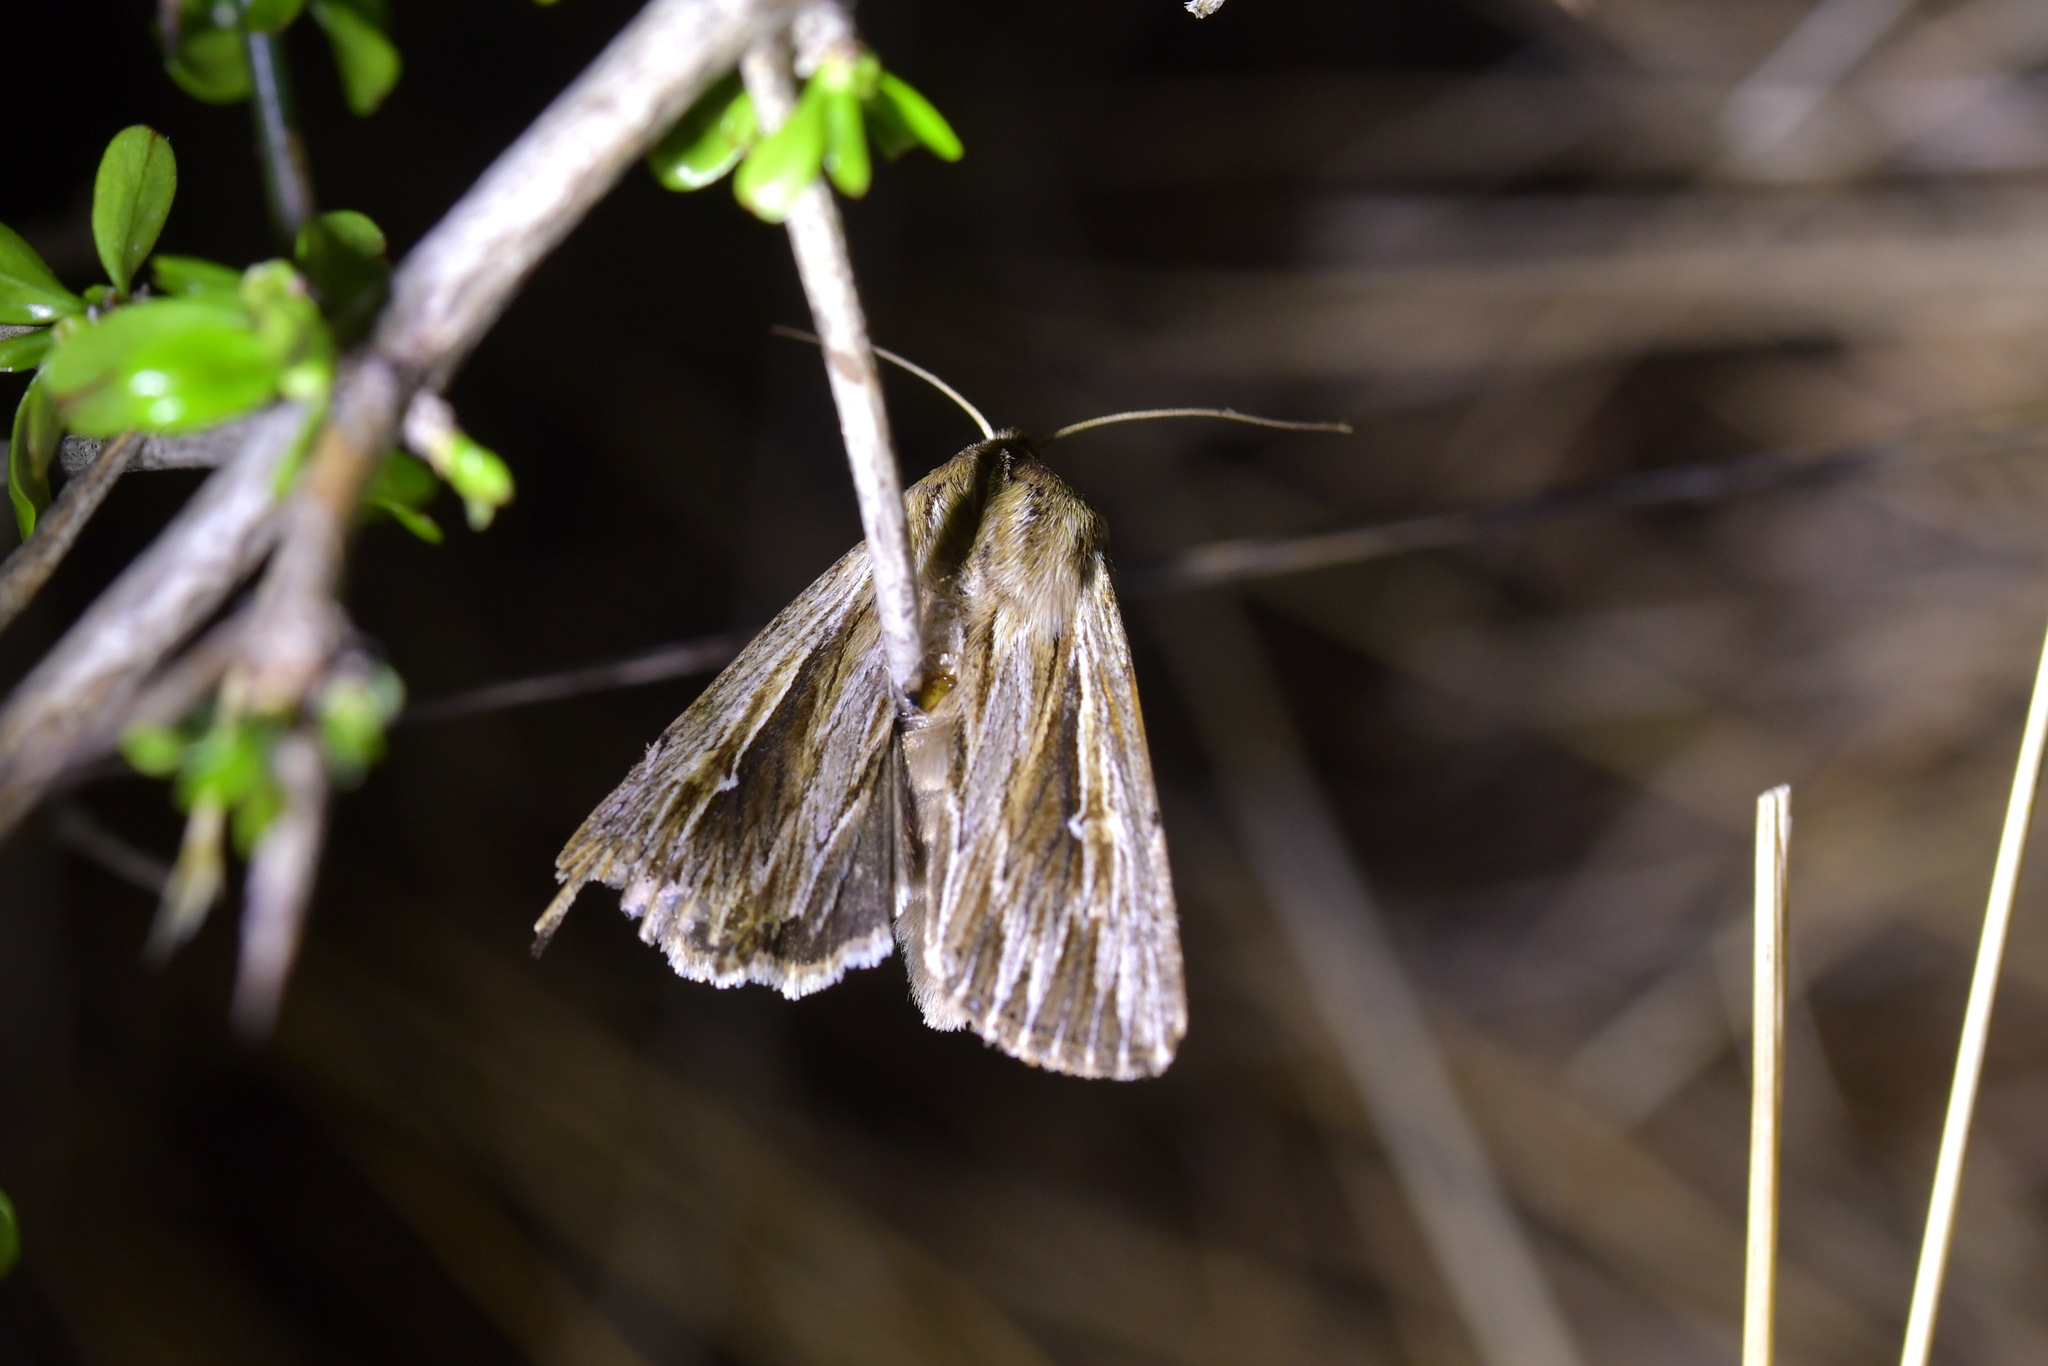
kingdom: Animalia
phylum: Arthropoda
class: Insecta
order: Lepidoptera
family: Noctuidae
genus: Persectania
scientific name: Persectania aversa
